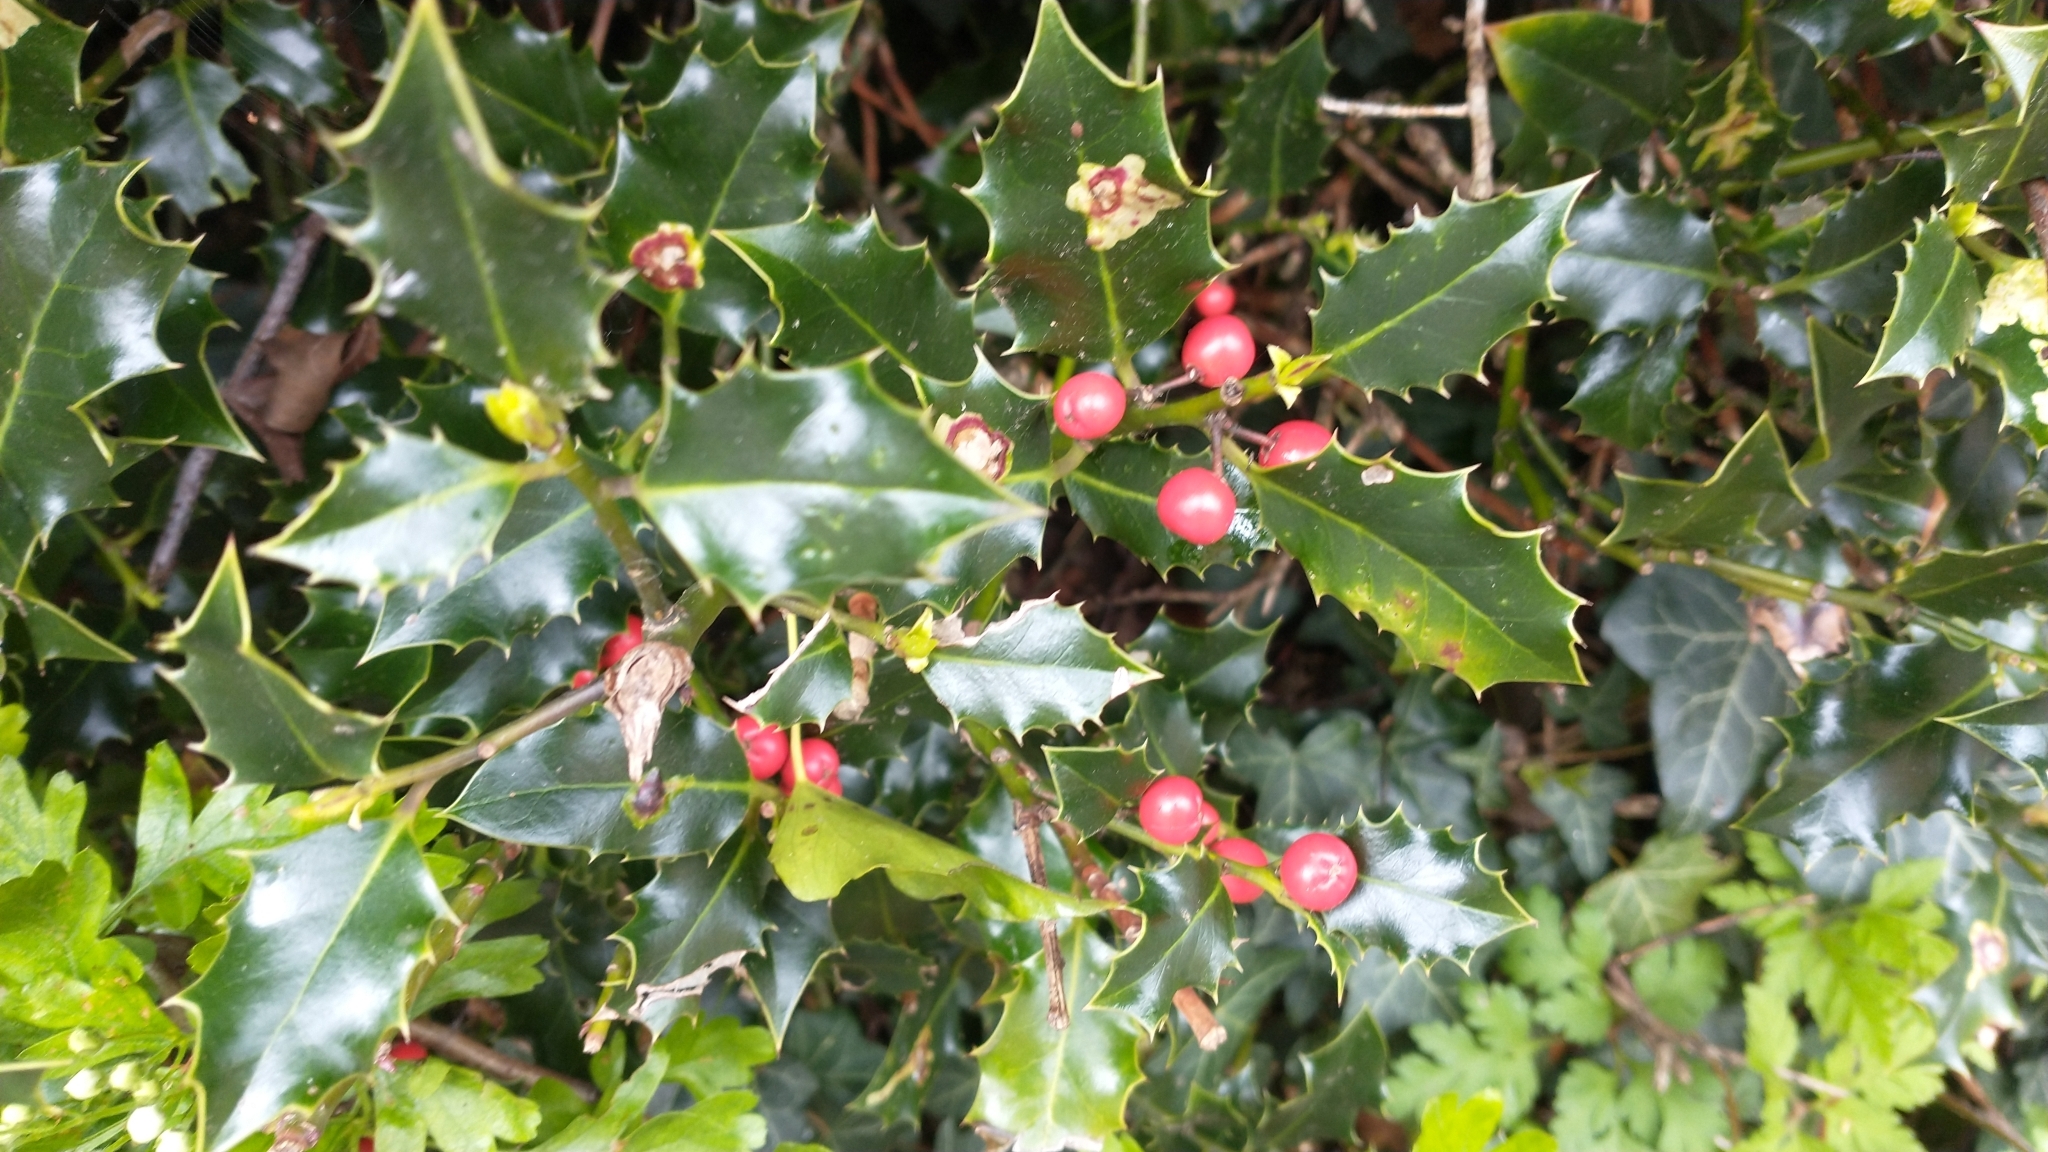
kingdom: Plantae
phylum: Tracheophyta
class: Magnoliopsida
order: Aquifoliales
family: Aquifoliaceae
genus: Ilex
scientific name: Ilex aquifolium
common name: English holly
